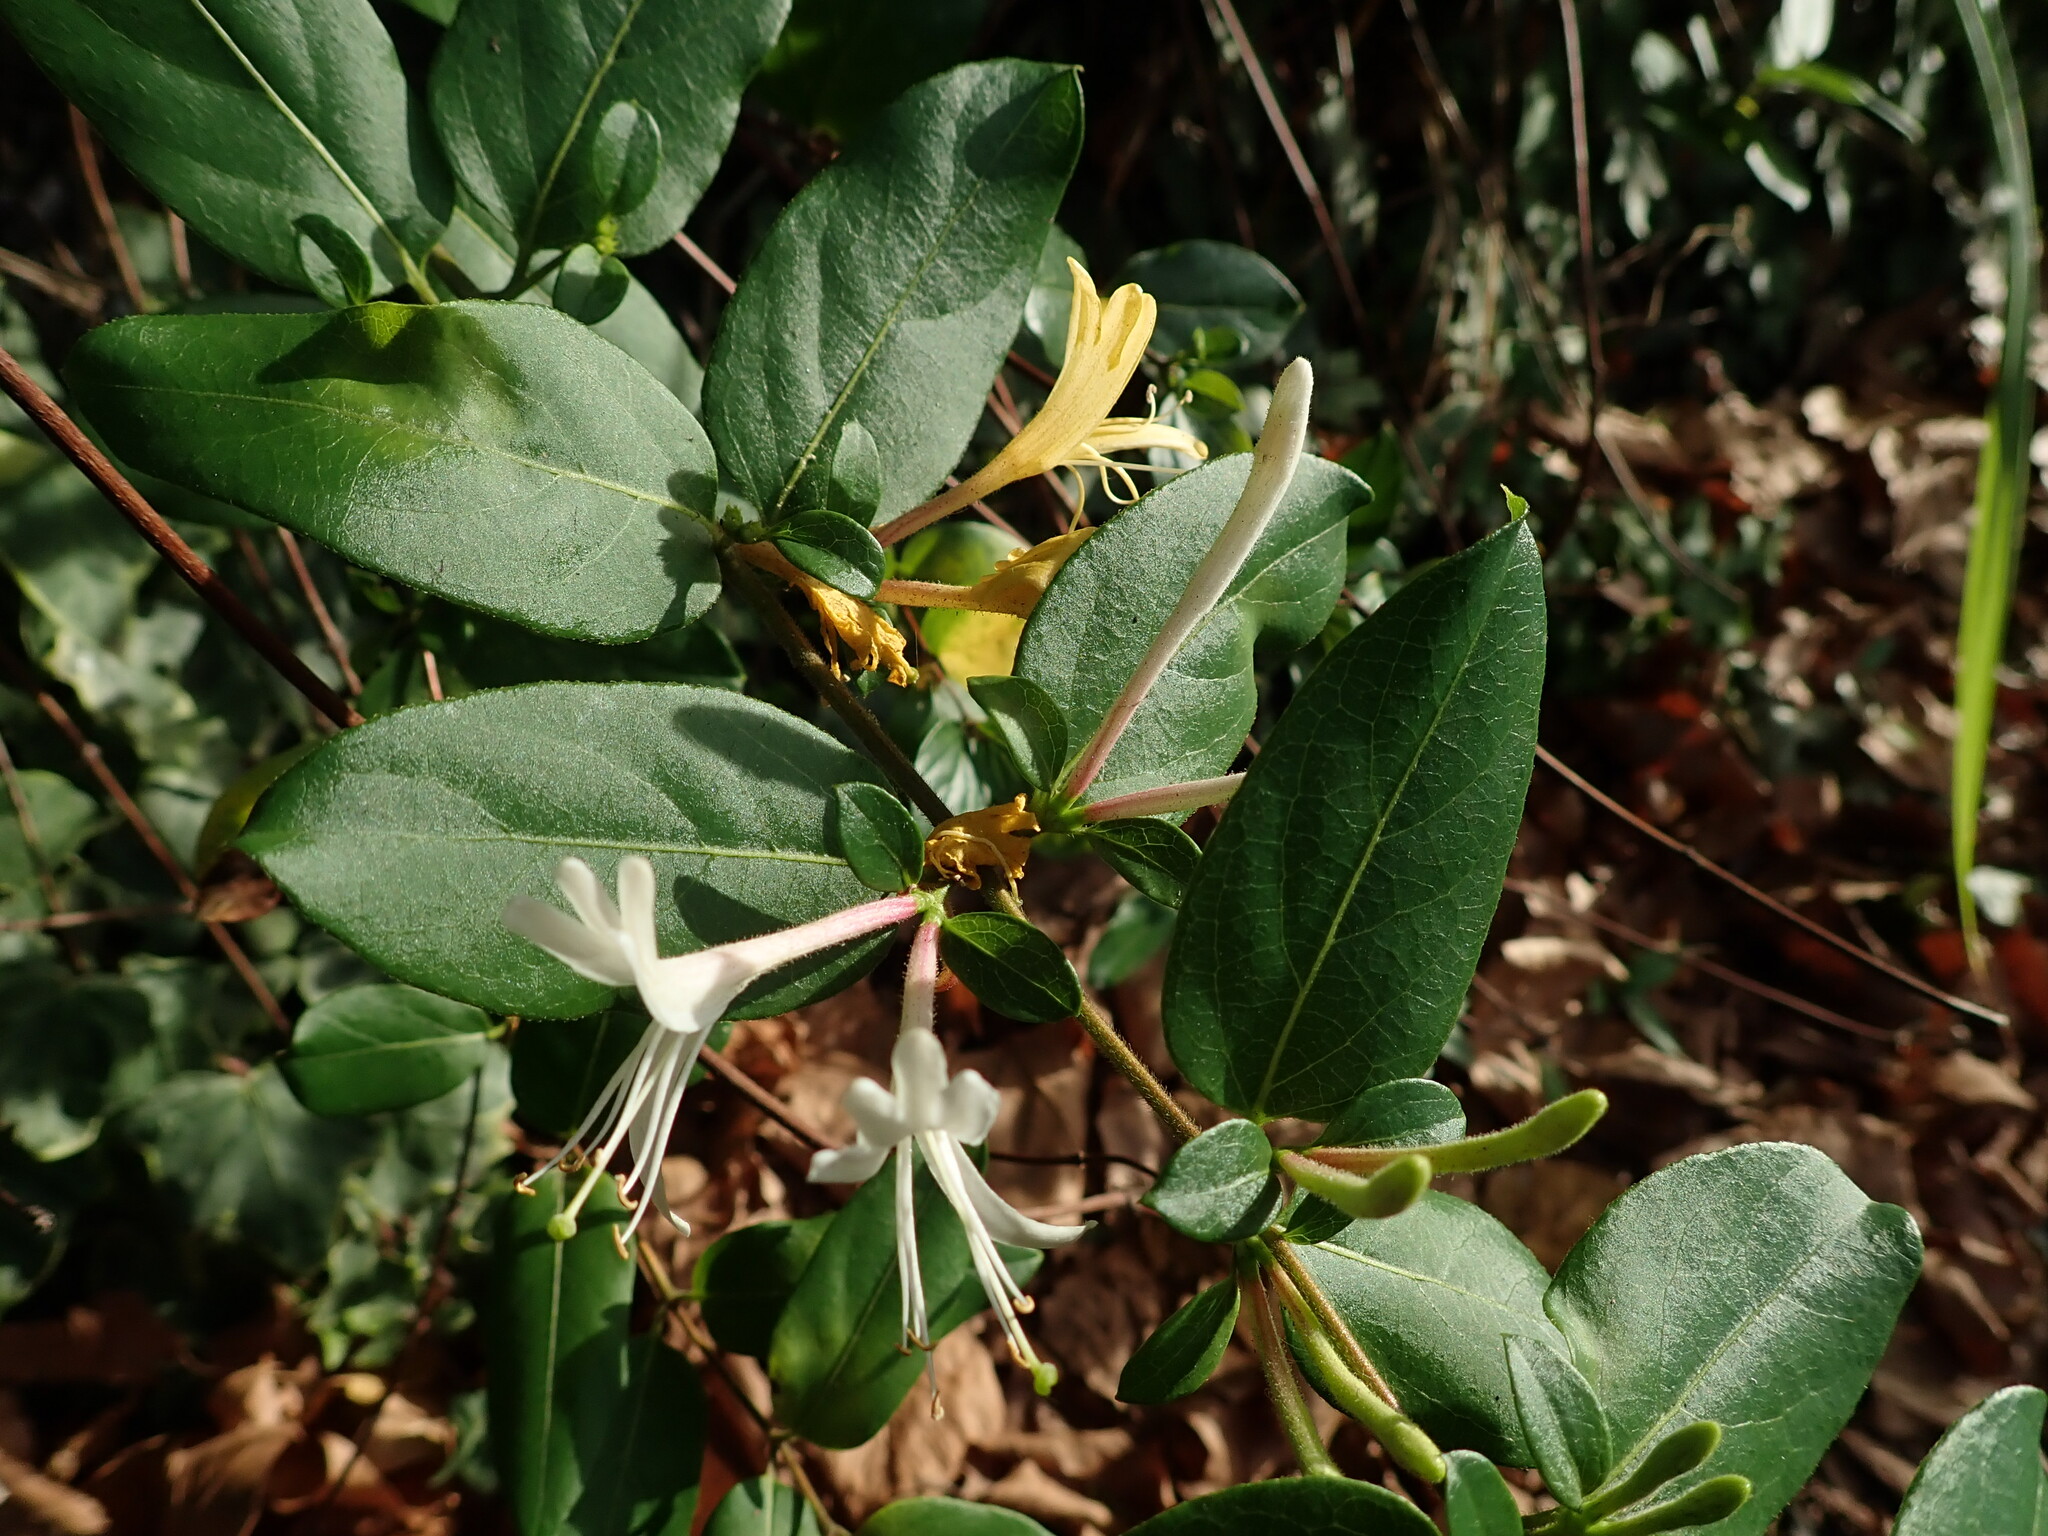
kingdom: Plantae
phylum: Tracheophyta
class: Magnoliopsida
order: Dipsacales
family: Caprifoliaceae
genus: Lonicera
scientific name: Lonicera japonica
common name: Japanese honeysuckle
